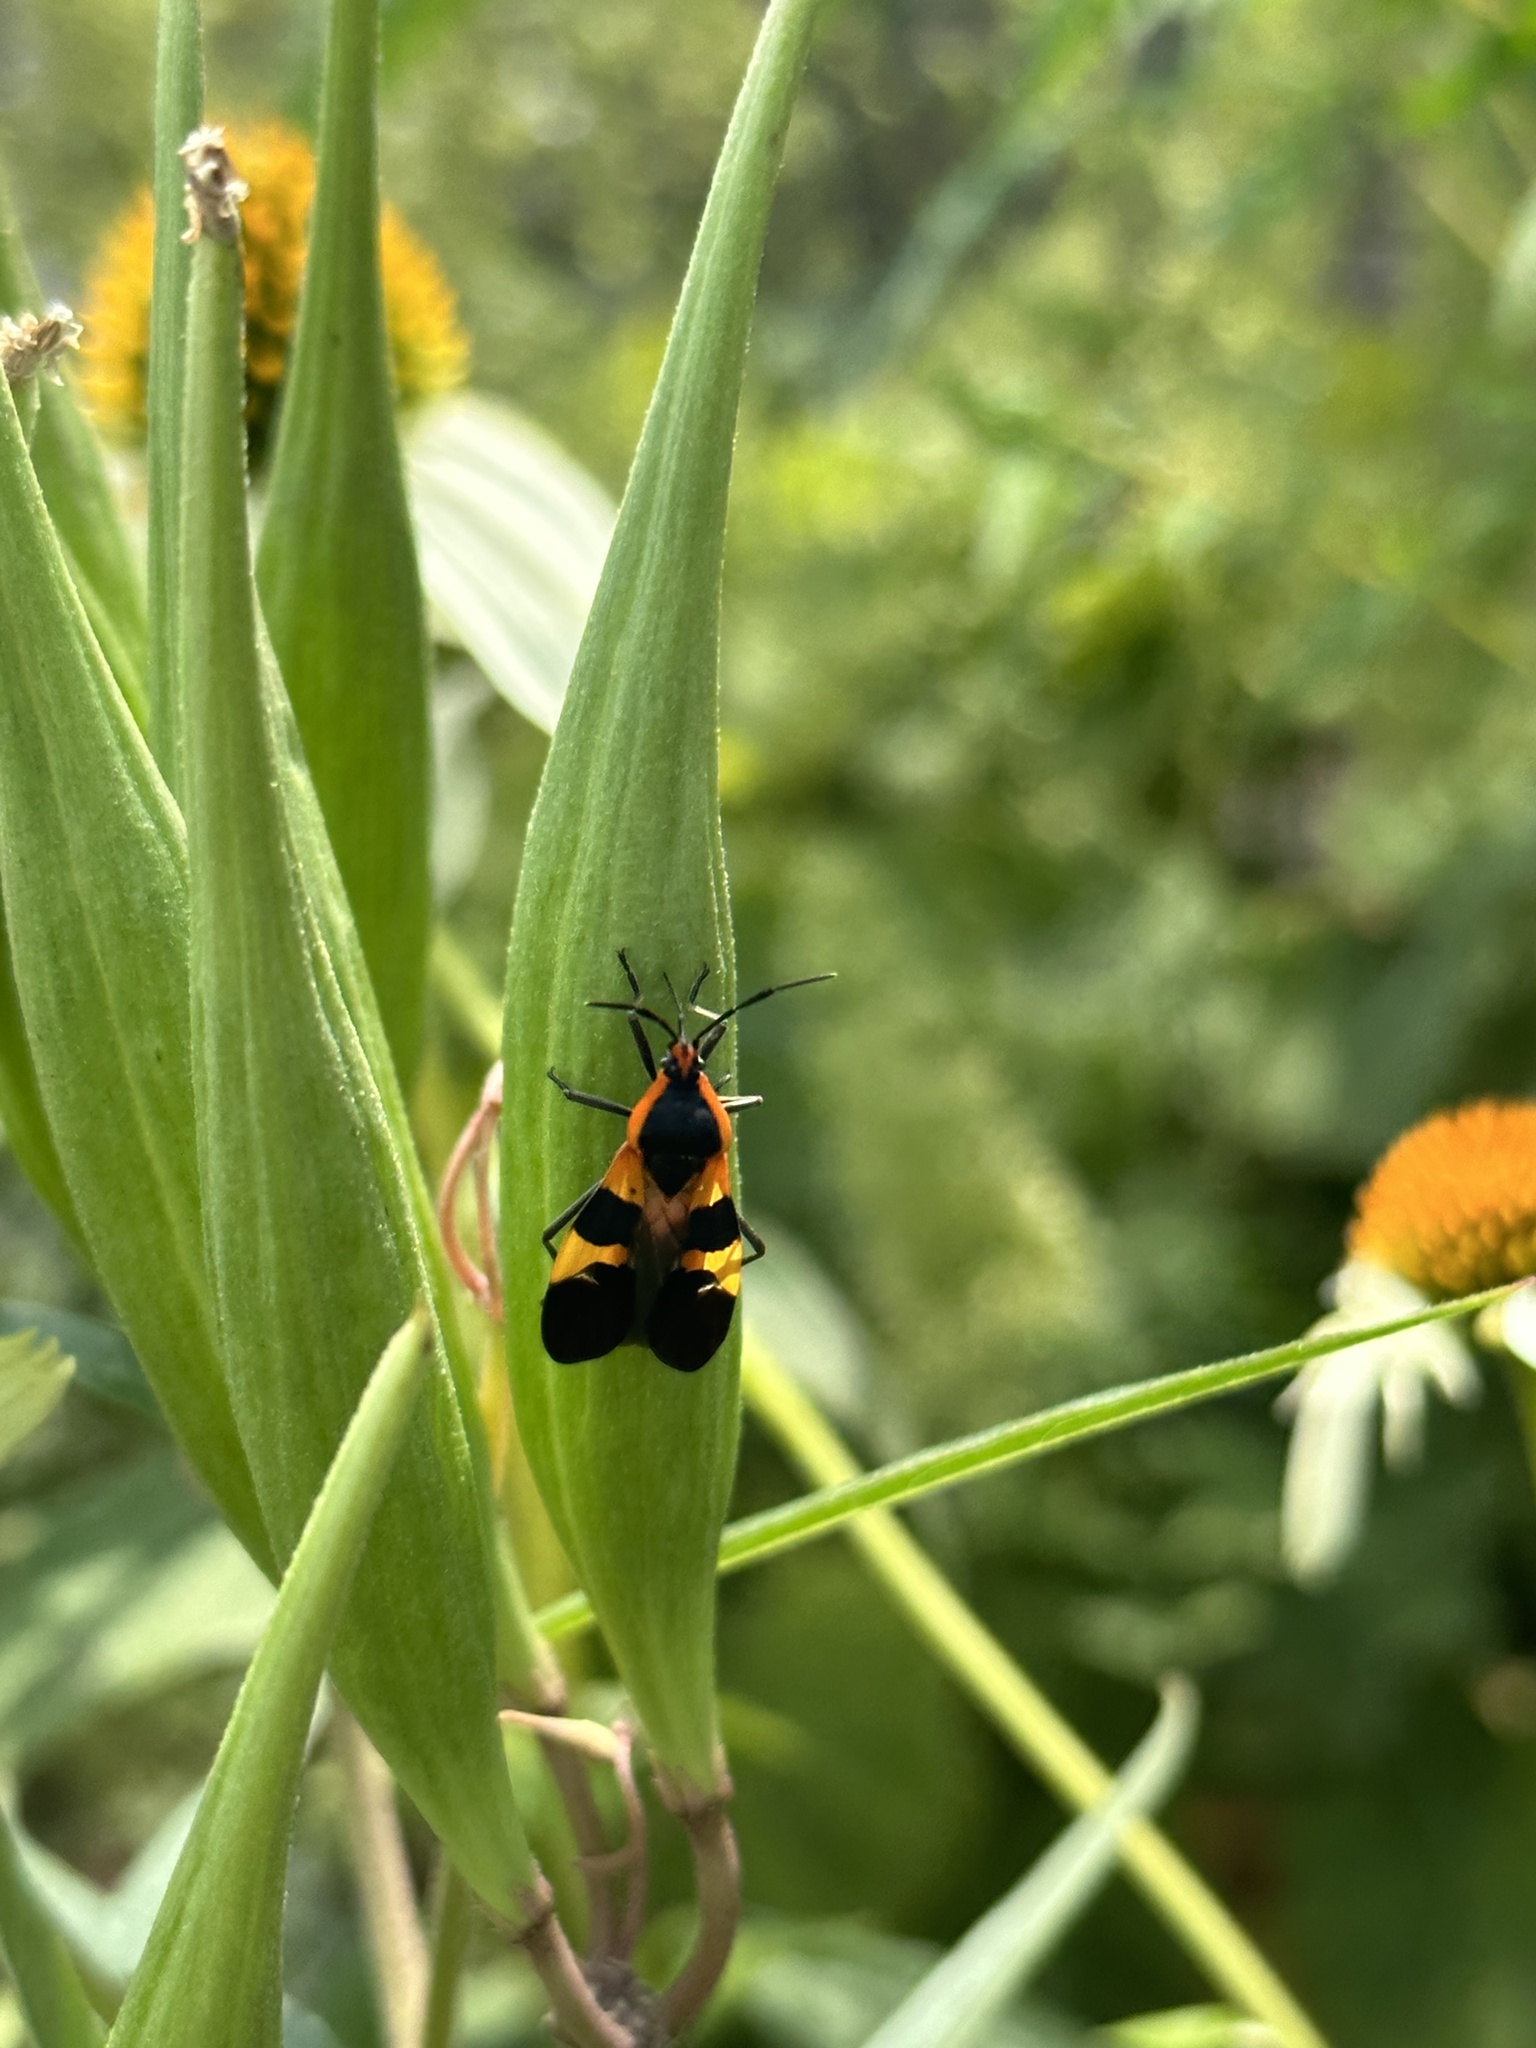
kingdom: Animalia
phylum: Arthropoda
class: Insecta
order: Hemiptera
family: Lygaeidae
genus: Oncopeltus
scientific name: Oncopeltus fasciatus
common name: Large milkweed bug
